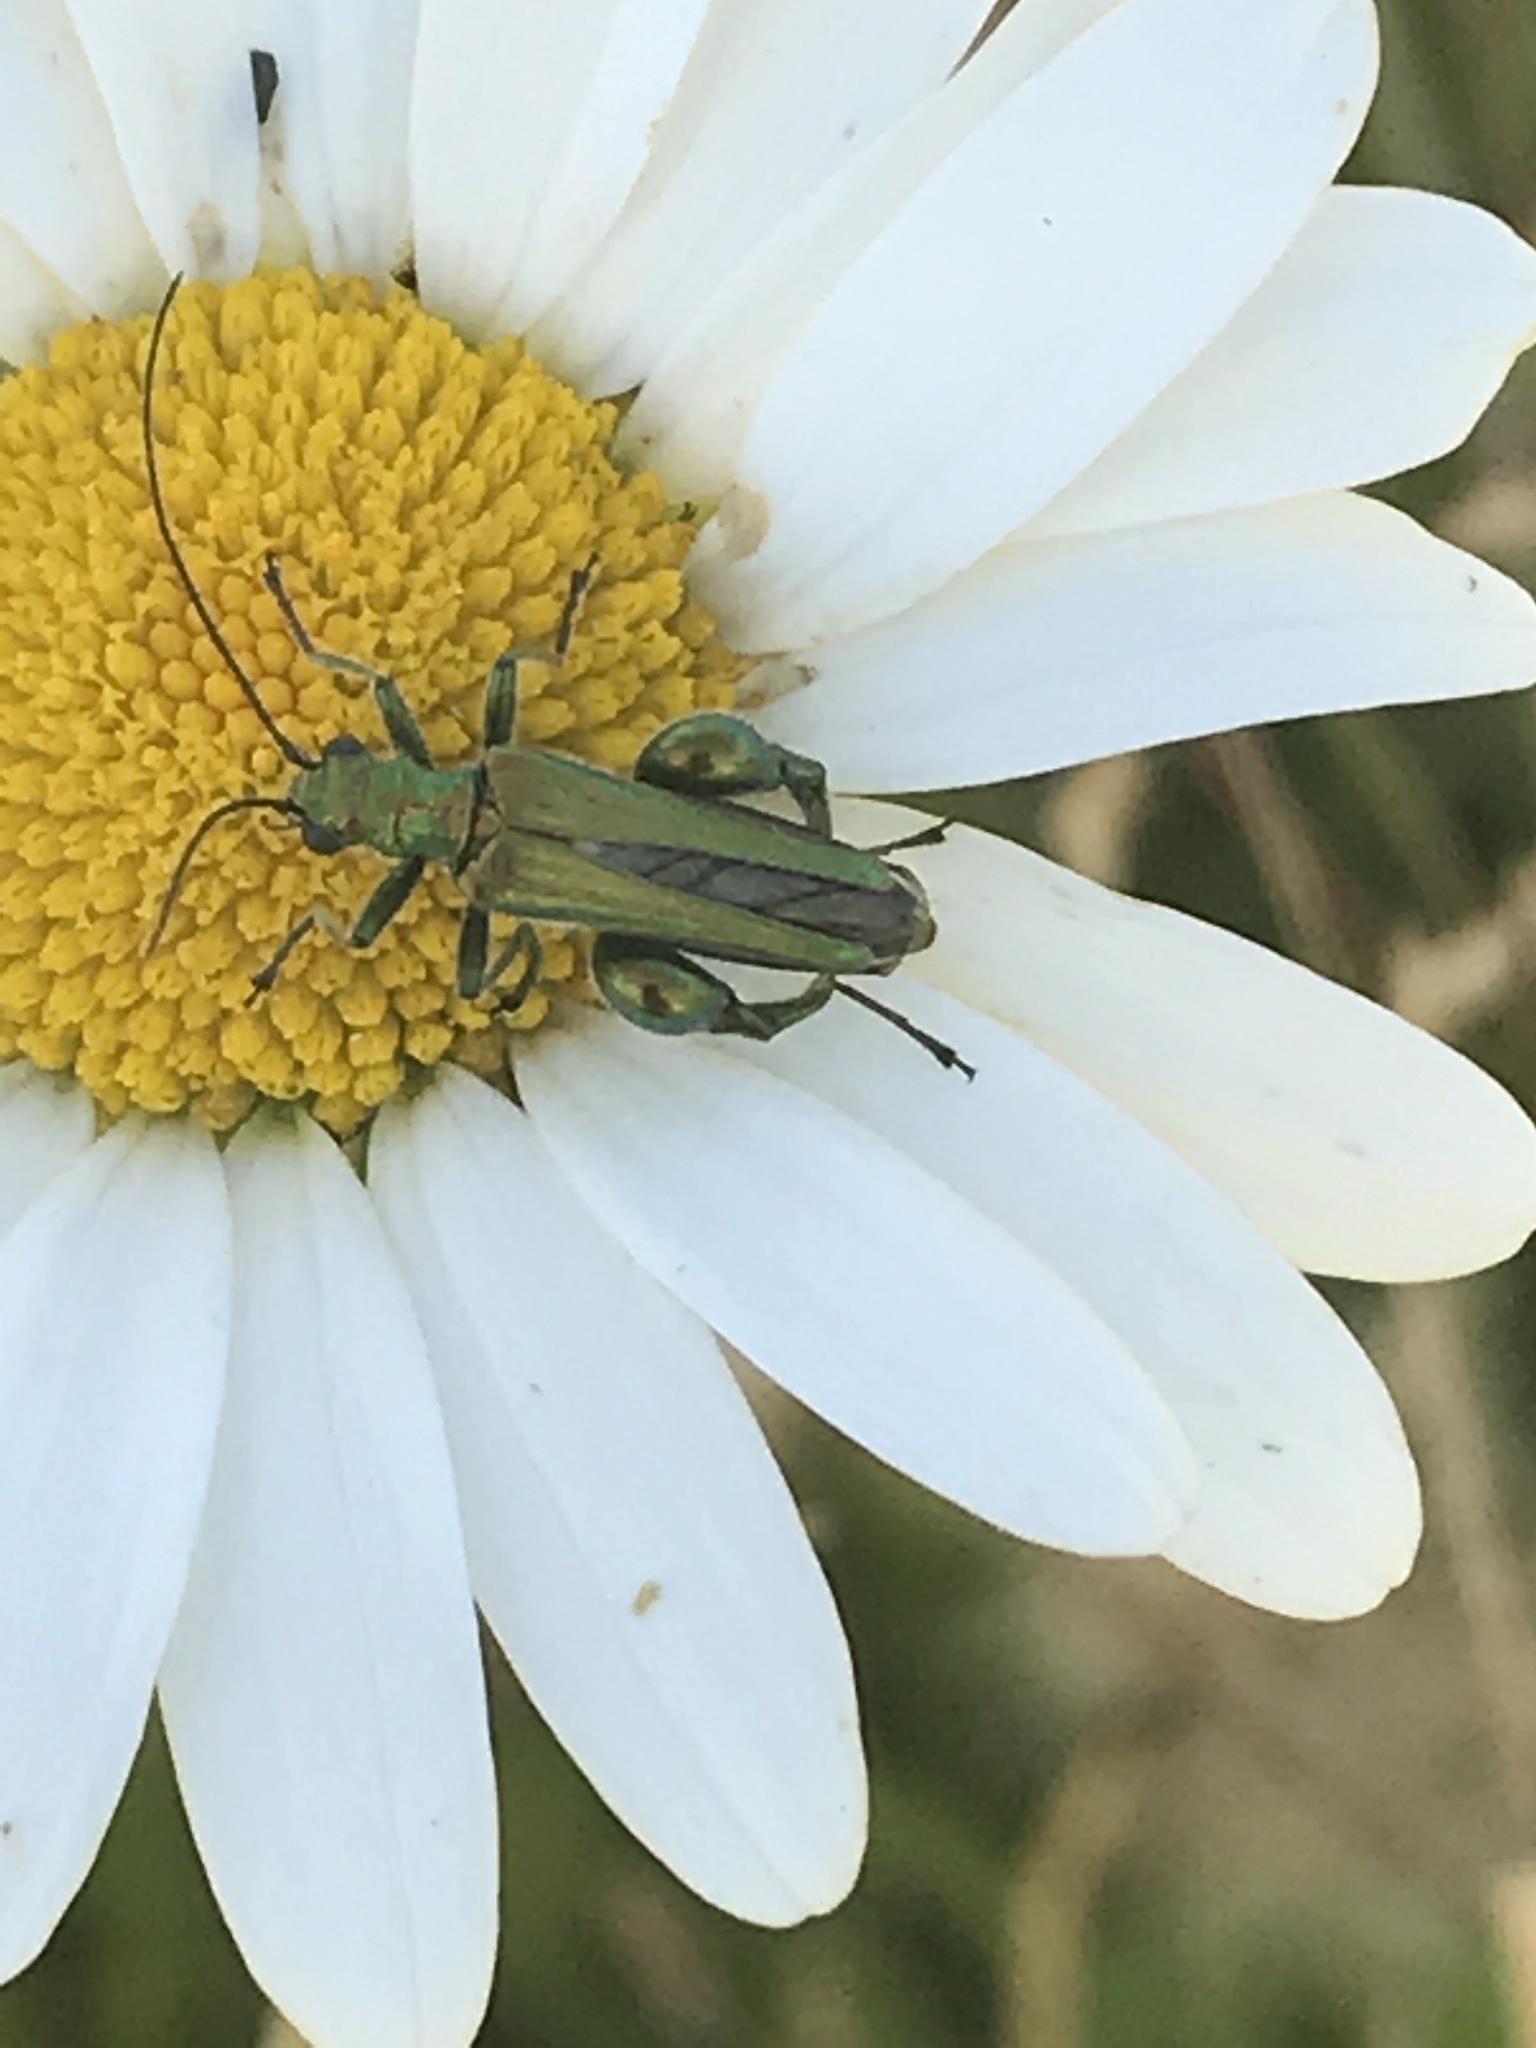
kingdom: Animalia
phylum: Arthropoda
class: Insecta
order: Coleoptera
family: Oedemeridae
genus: Oedemera
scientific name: Oedemera nobilis
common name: Swollen-thighed beetle
